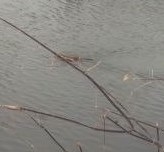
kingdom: Animalia
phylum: Chordata
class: Mammalia
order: Rodentia
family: Cricetidae
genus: Ondatra
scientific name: Ondatra zibethicus
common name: Muskrat
